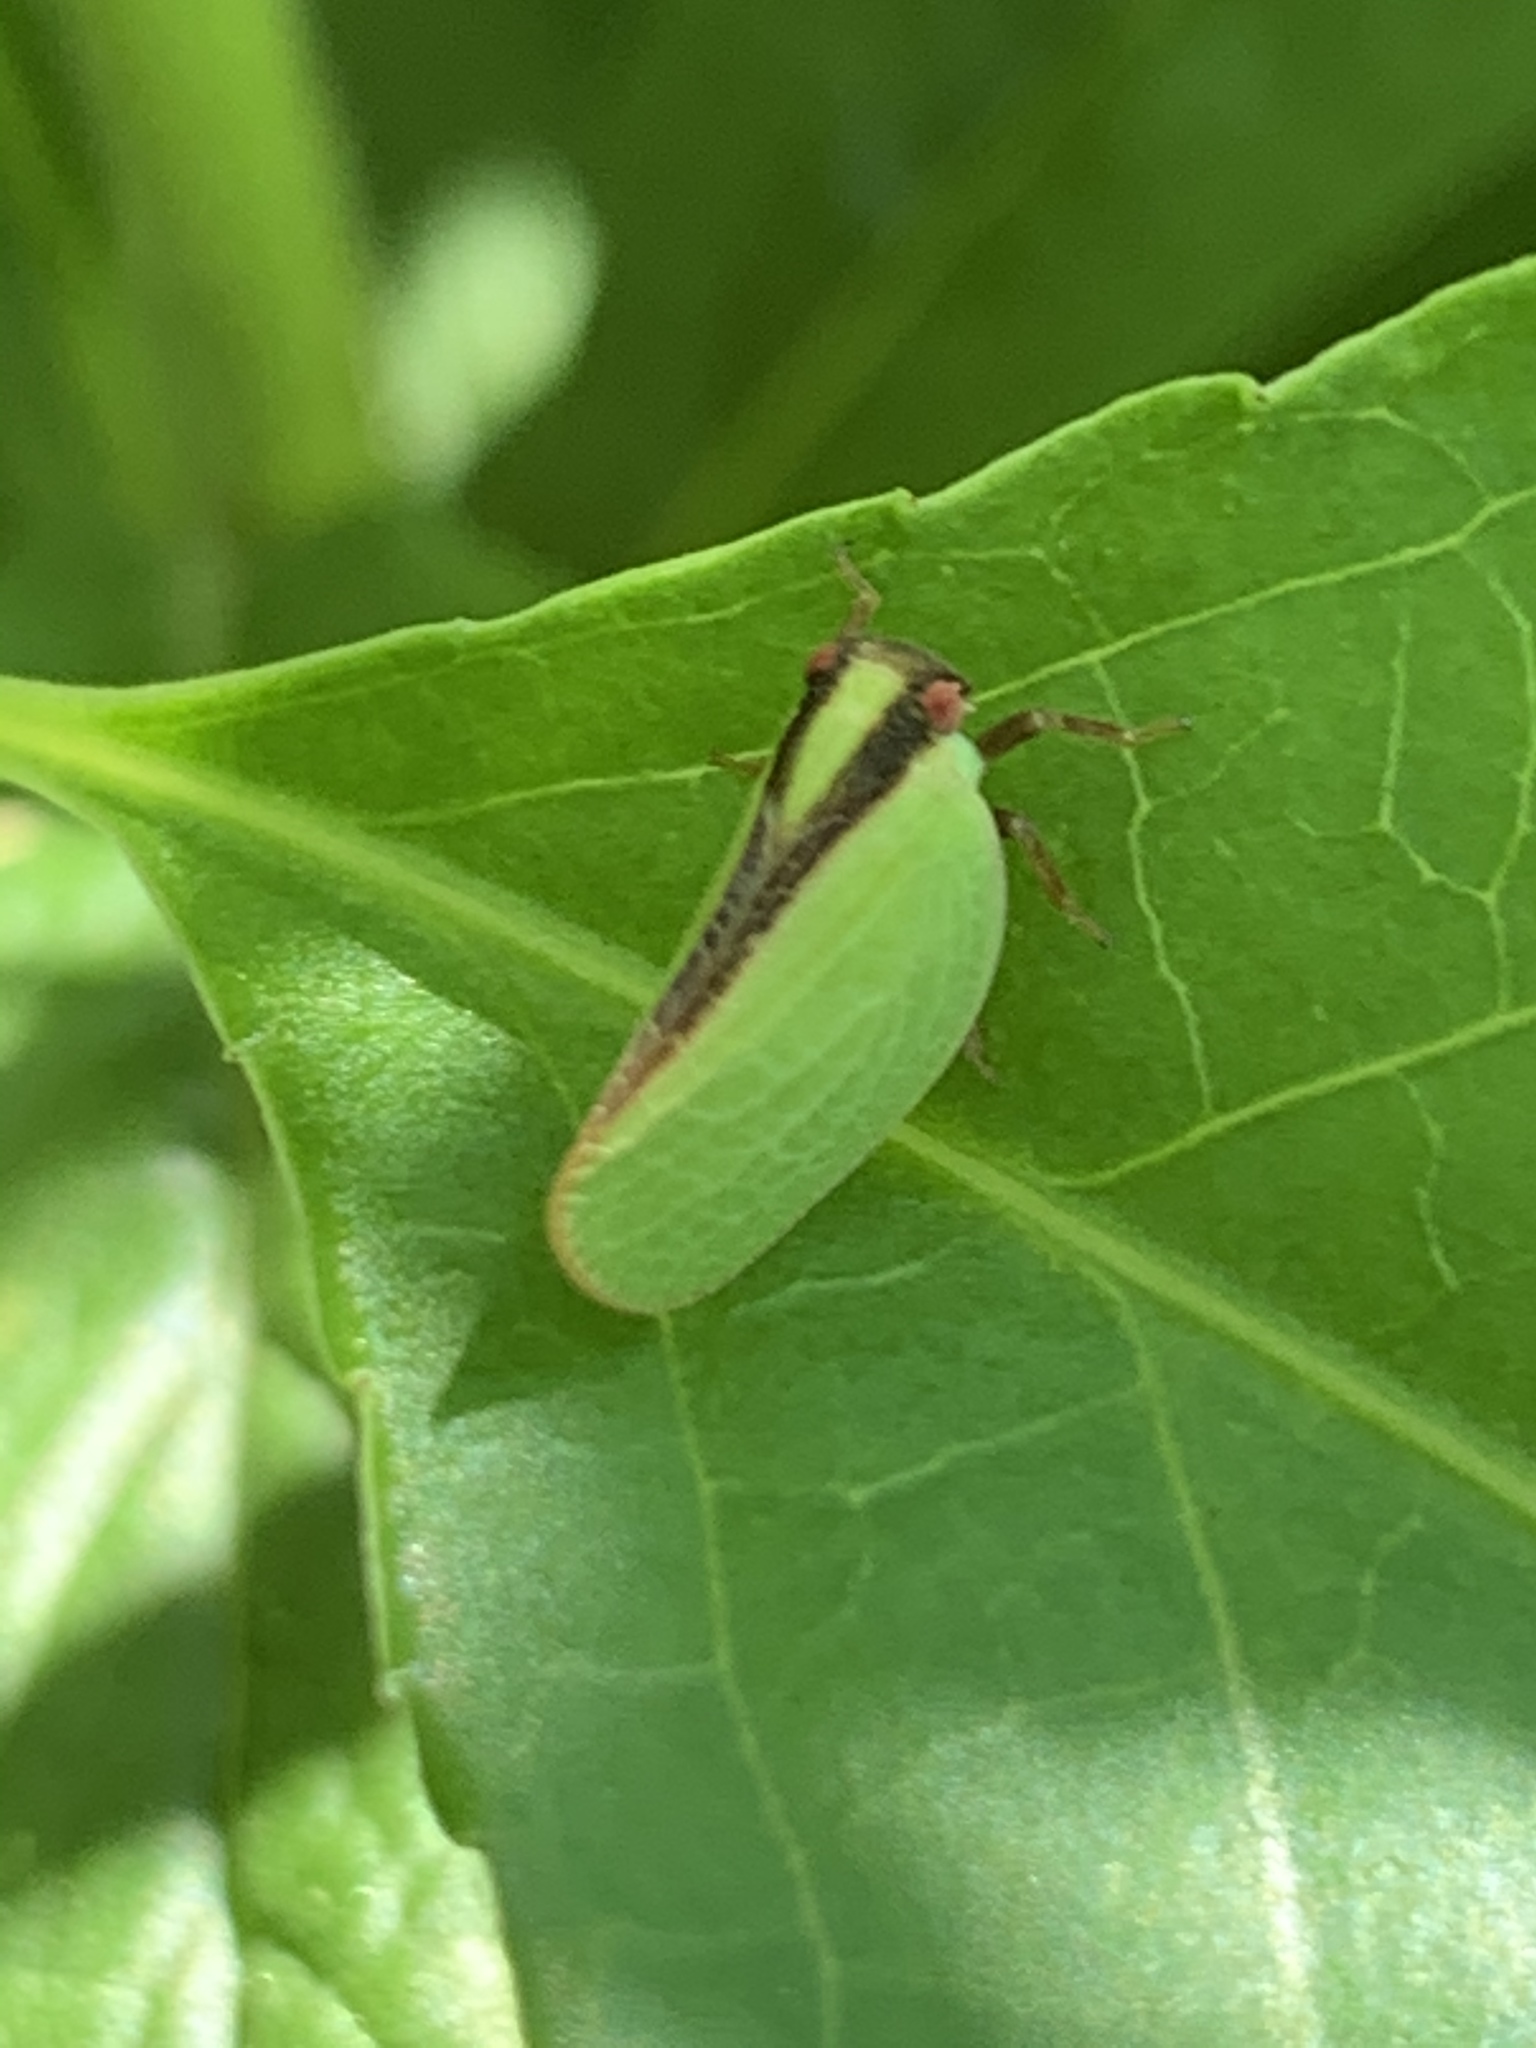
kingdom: Animalia
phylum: Arthropoda
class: Insecta
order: Hemiptera
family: Acanaloniidae
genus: Acanalonia
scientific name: Acanalonia bivittata
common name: Two-striped planthopper
